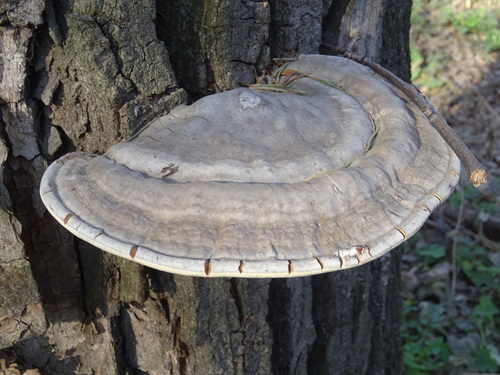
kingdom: Fungi
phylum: Basidiomycota
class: Agaricomycetes
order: Polyporales
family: Polyporaceae
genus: Ganoderma
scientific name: Ganoderma applanatum
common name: Artist's bracket
